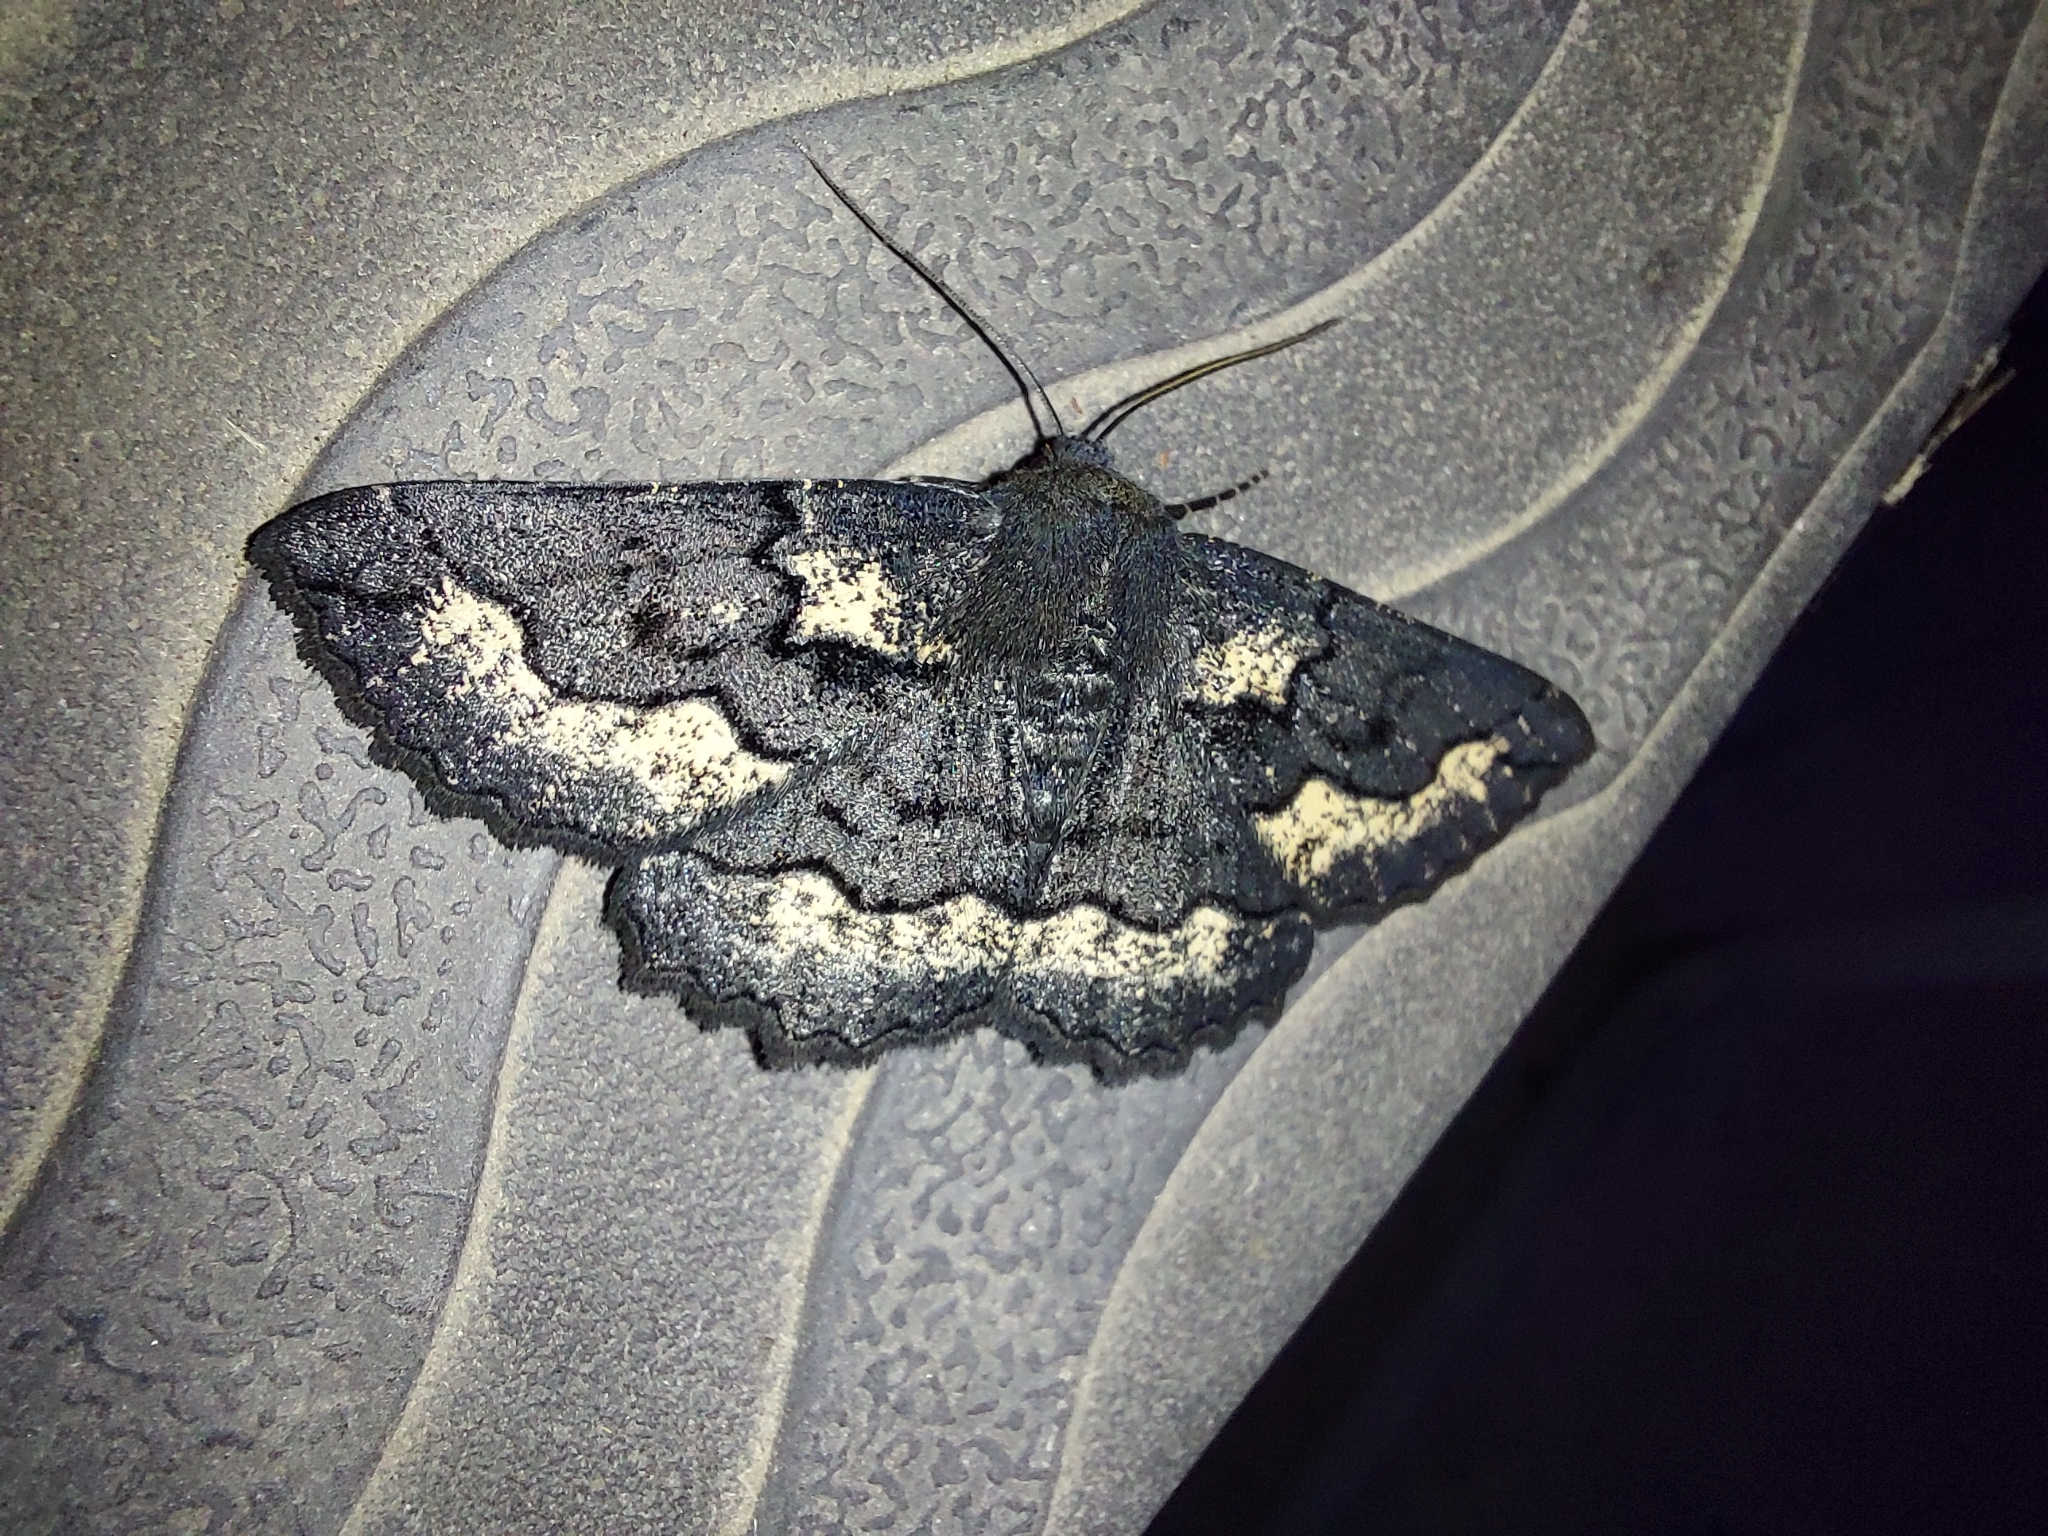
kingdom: Animalia
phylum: Arthropoda
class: Insecta
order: Lepidoptera
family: Geometridae
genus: Melanodes
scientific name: Melanodes anthracitaria
